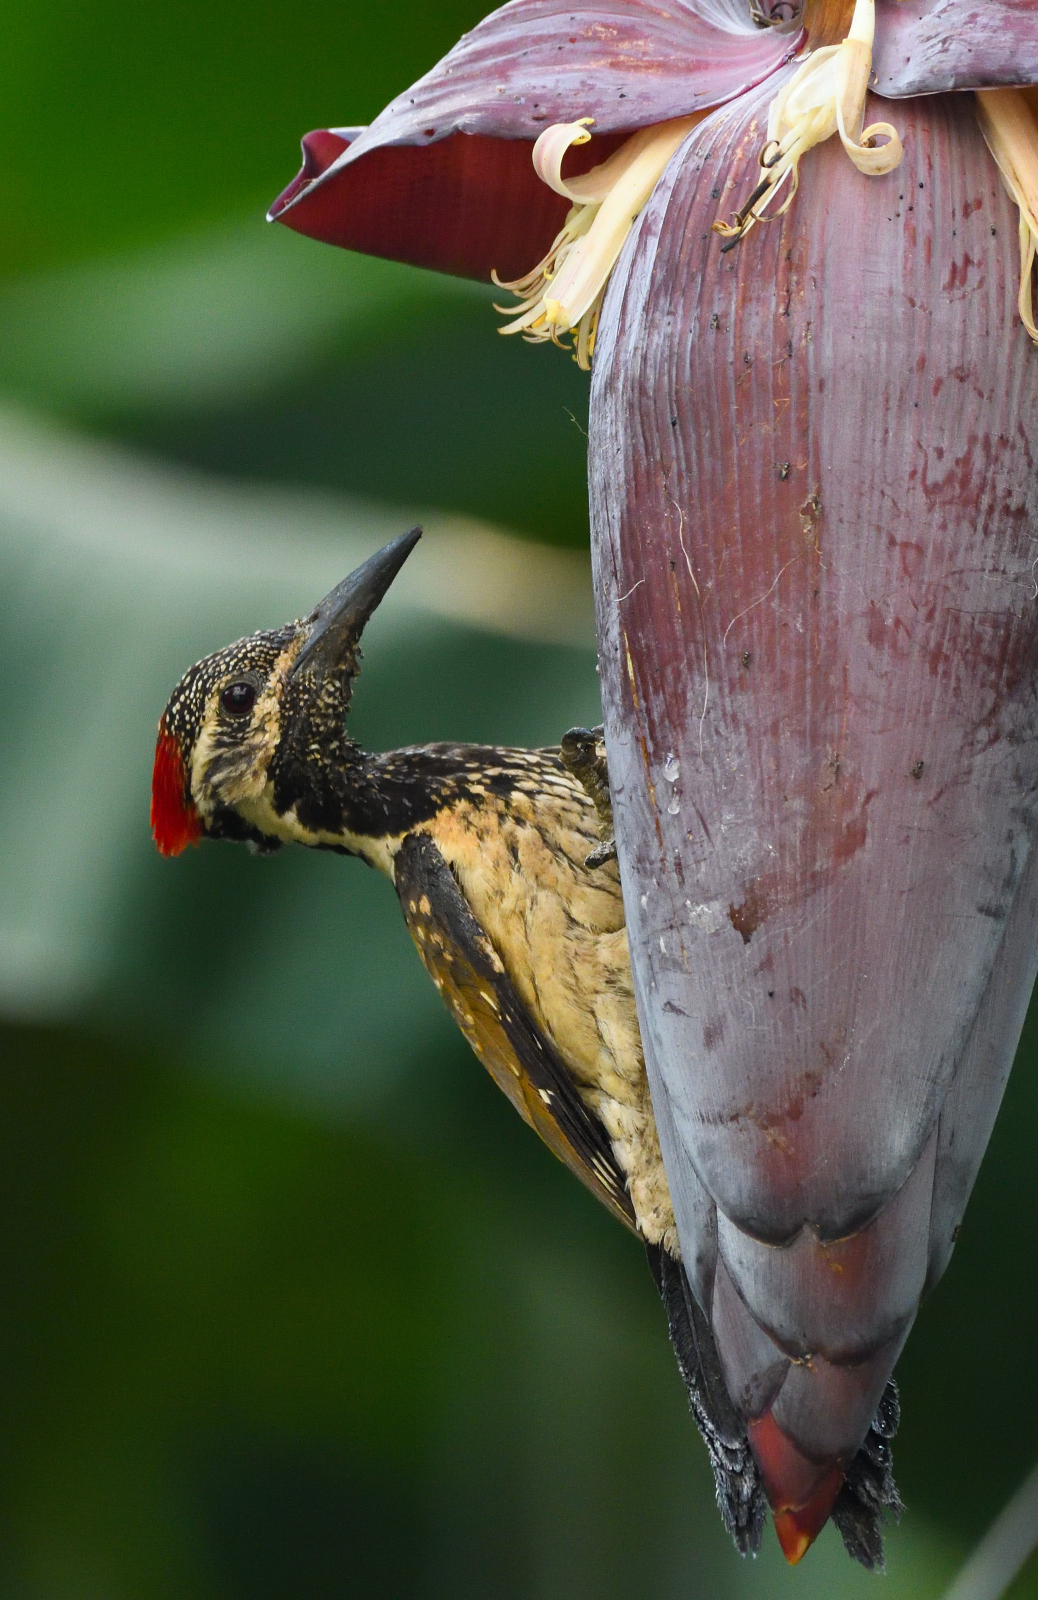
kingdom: Animalia
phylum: Chordata
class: Aves
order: Piciformes
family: Picidae
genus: Dinopium
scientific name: Dinopium benghalense
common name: Black-rumped flameback
